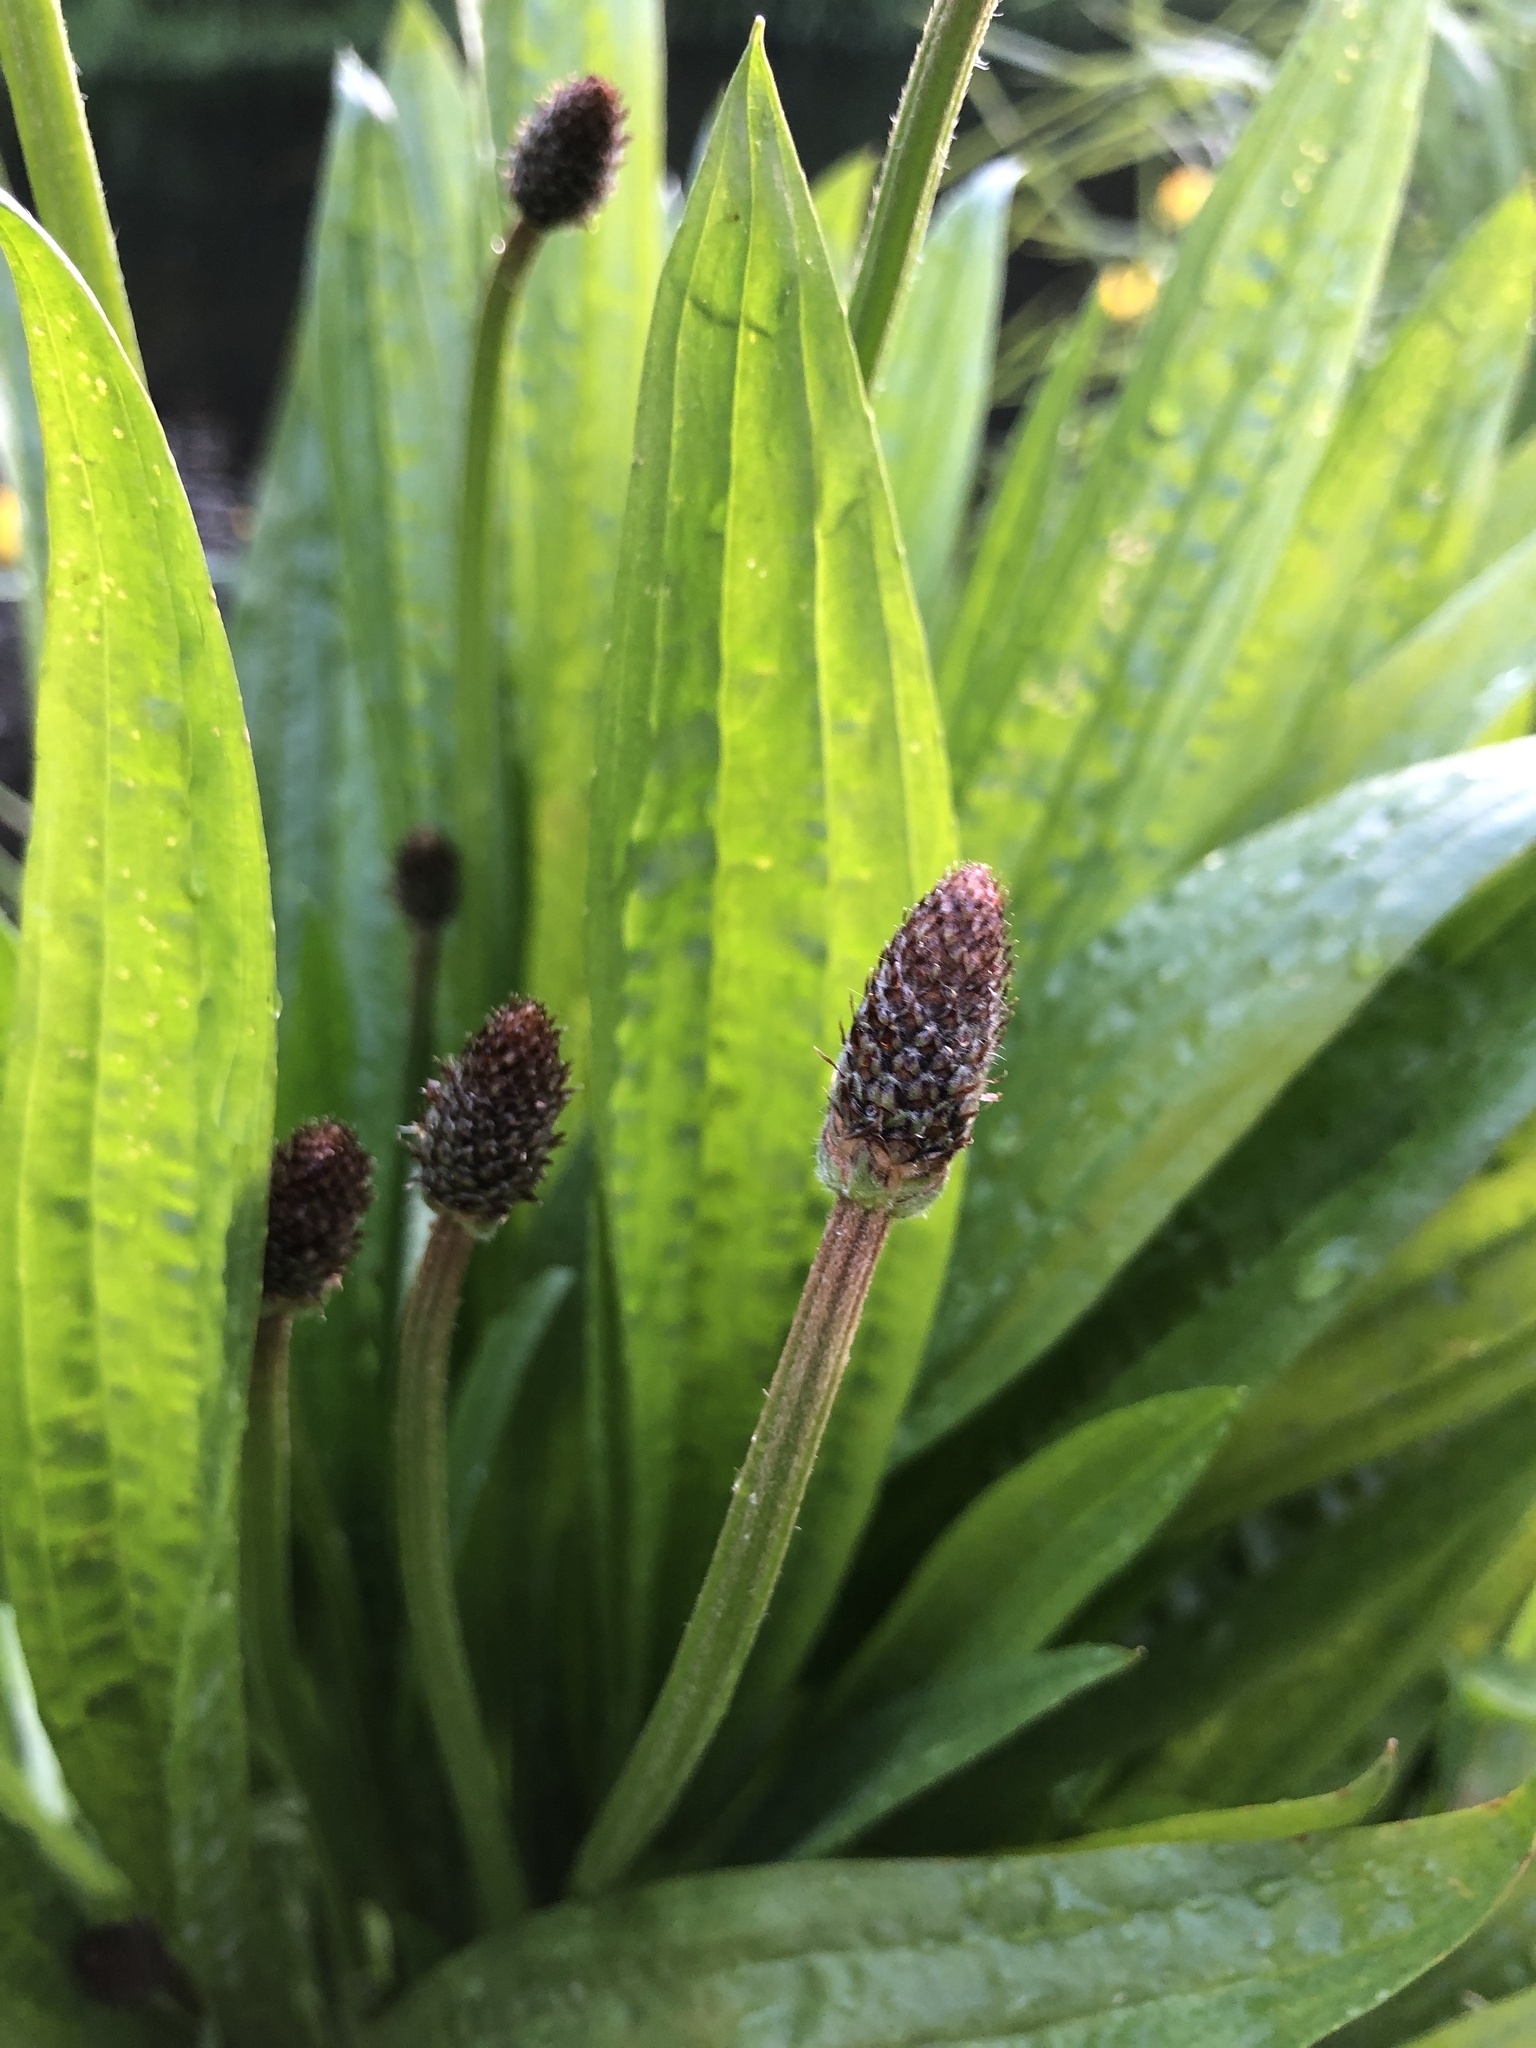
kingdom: Plantae
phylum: Tracheophyta
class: Magnoliopsida
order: Lamiales
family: Plantaginaceae
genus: Plantago
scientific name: Plantago lanceolata
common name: Ribwort plantain
